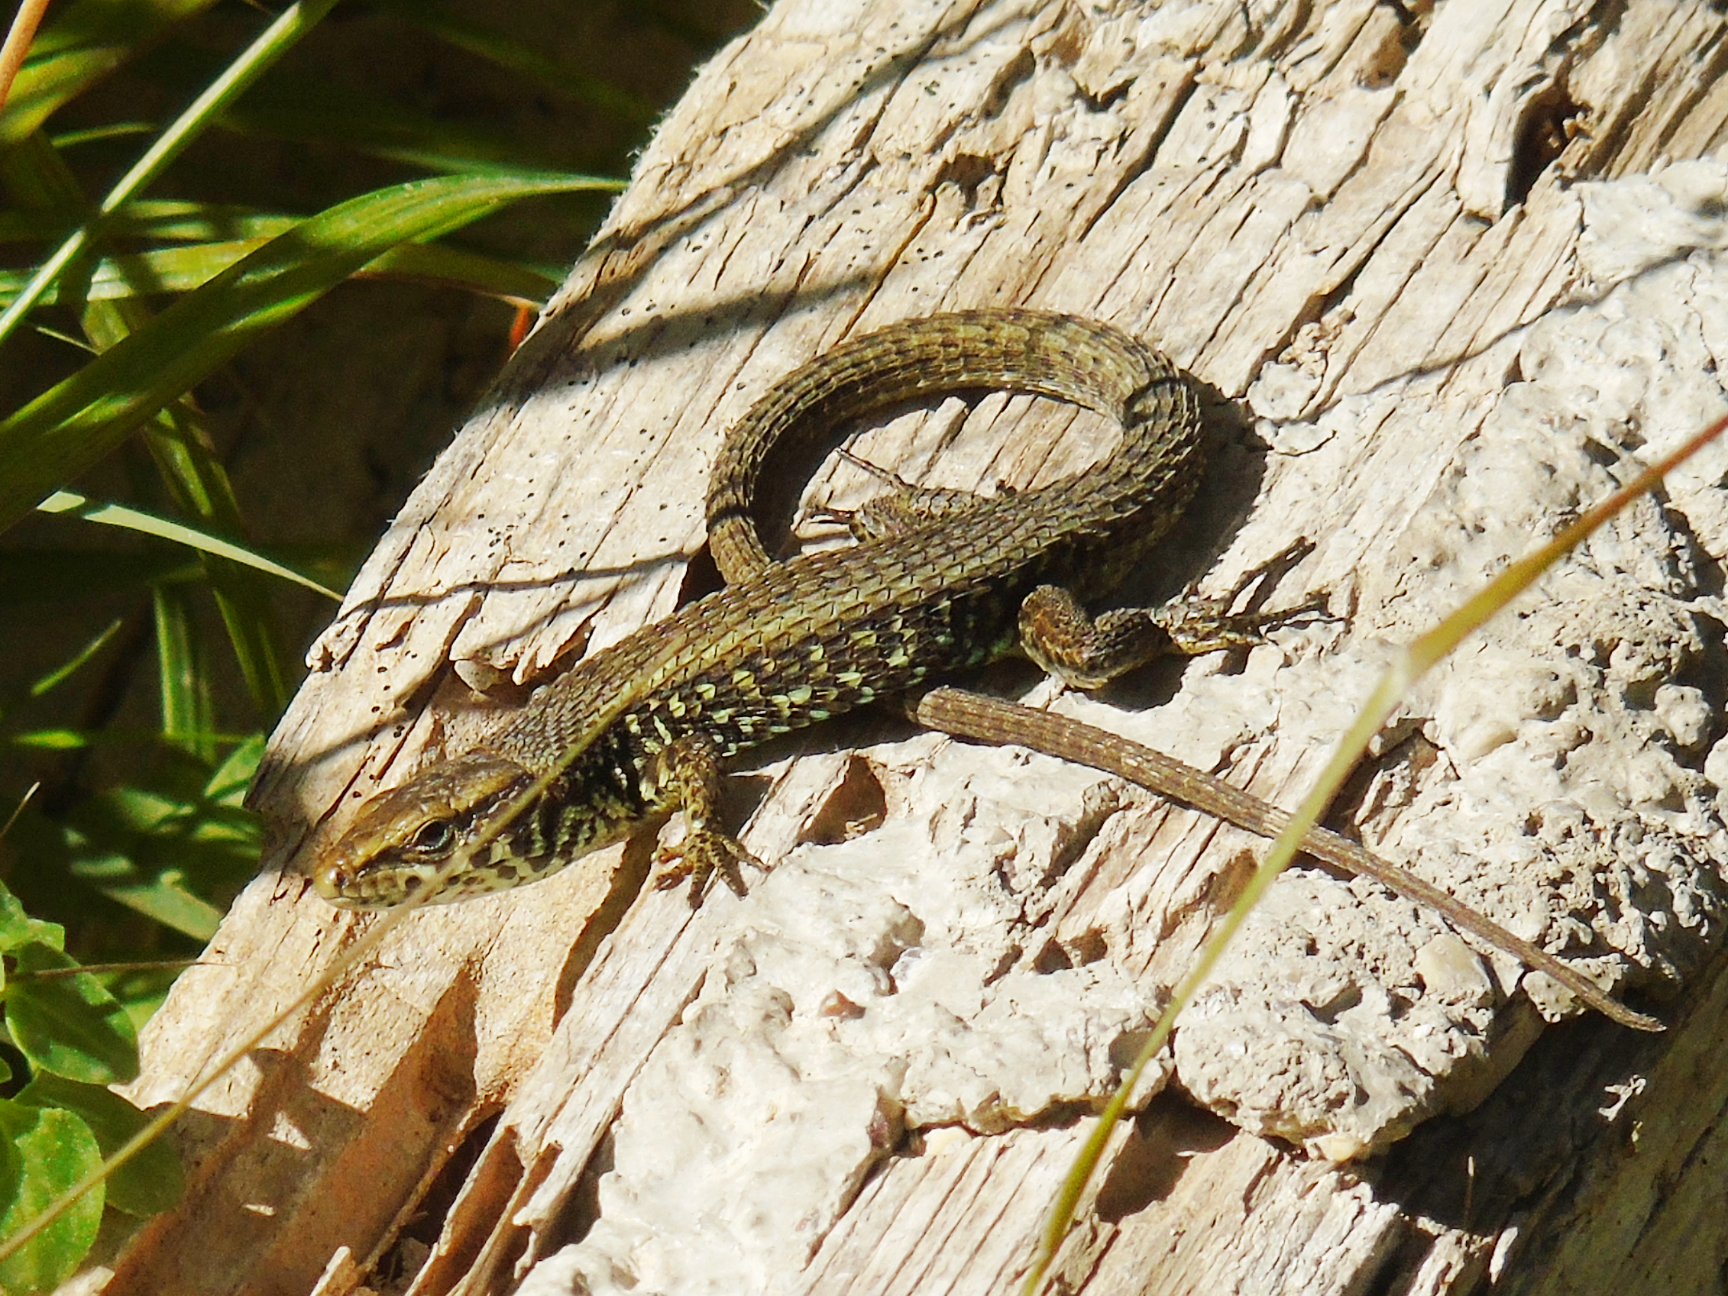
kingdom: Animalia
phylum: Chordata
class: Squamata
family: Lacertidae
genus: Algyroides
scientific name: Algyroides moreoticus
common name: Greek algyroides
